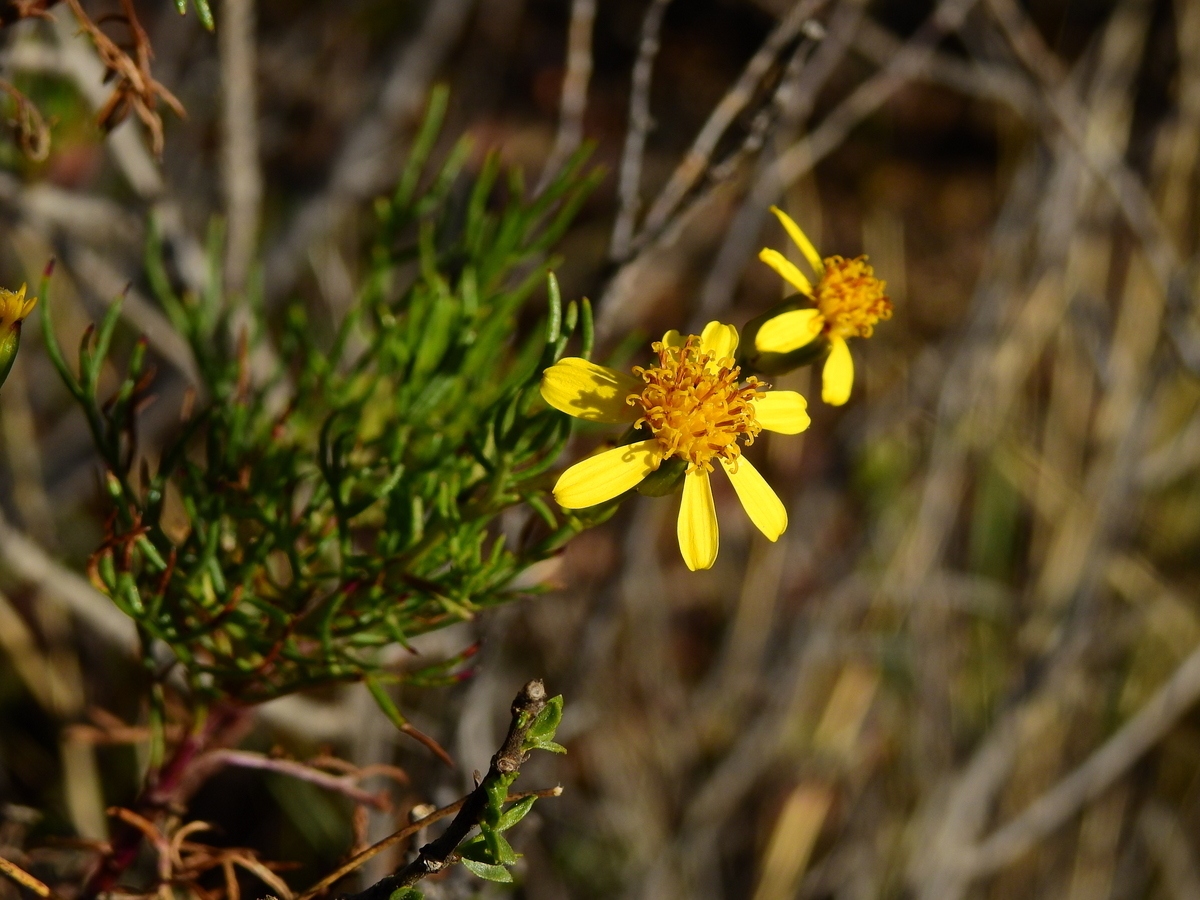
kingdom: Plantae
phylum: Tracheophyta
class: Magnoliopsida
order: Asterales
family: Asteraceae
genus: Senecio
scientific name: Senecio subulatus
